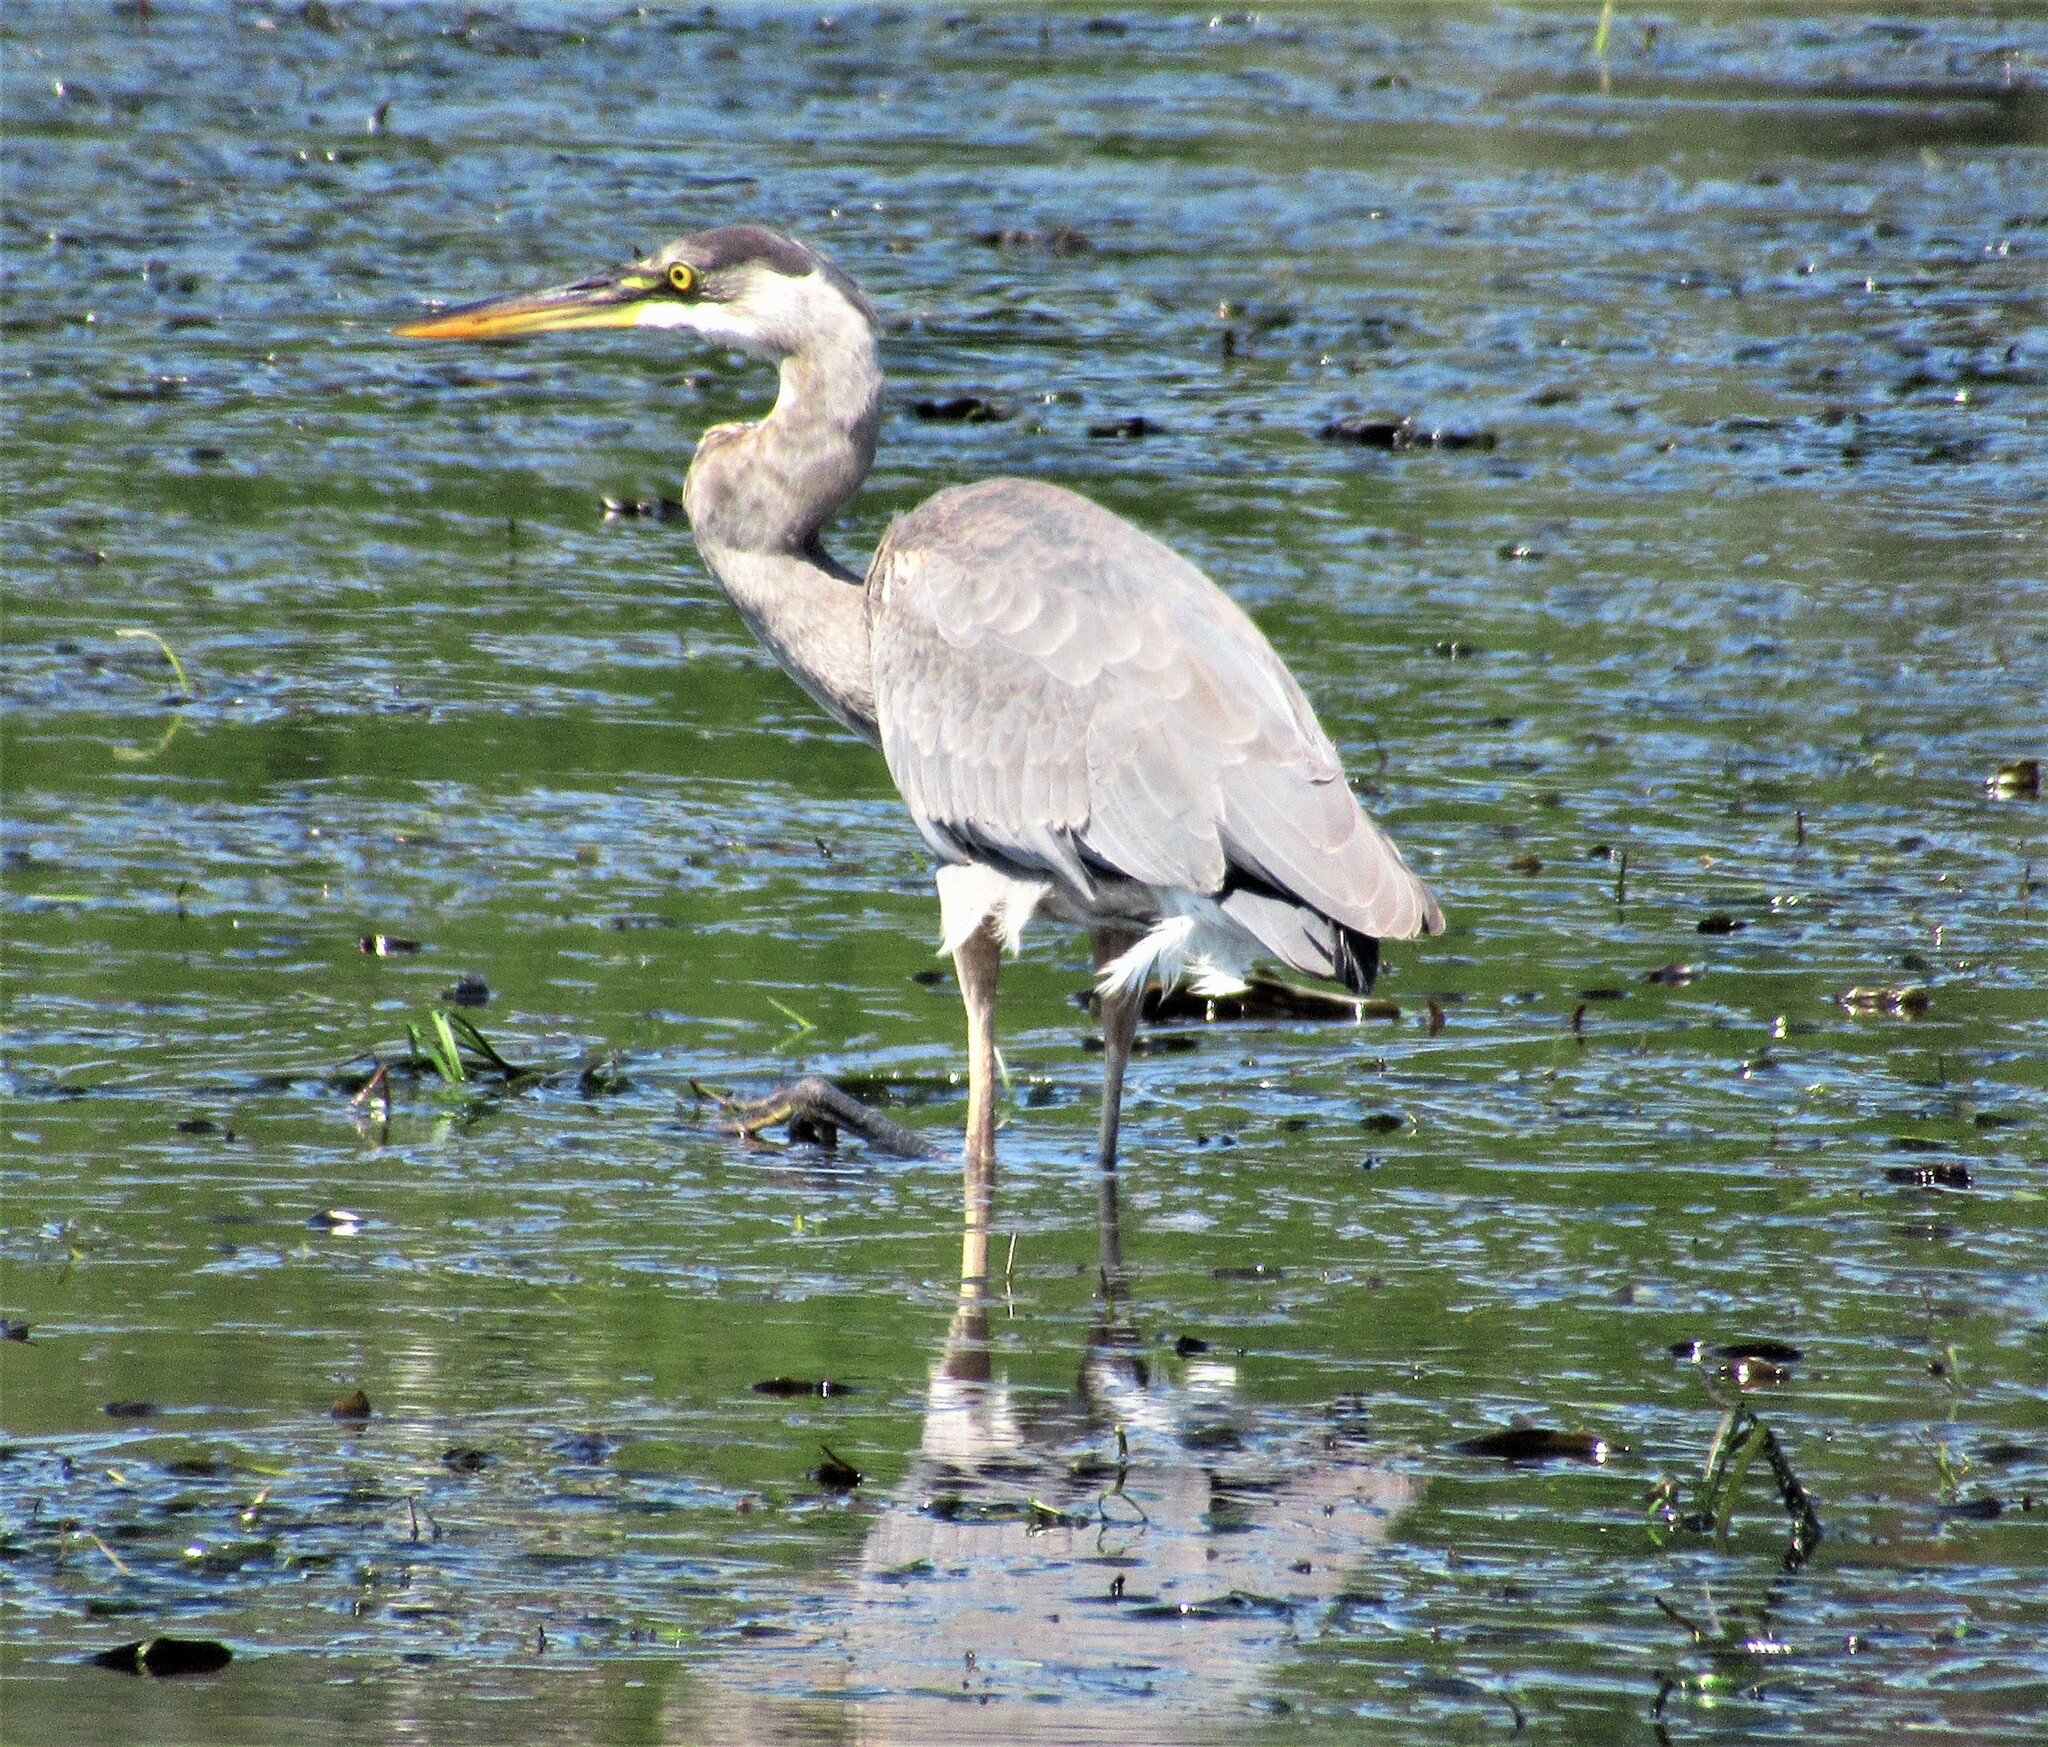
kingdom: Animalia
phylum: Chordata
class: Aves
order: Pelecaniformes
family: Ardeidae
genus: Ardea
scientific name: Ardea herodias
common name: Great blue heron
